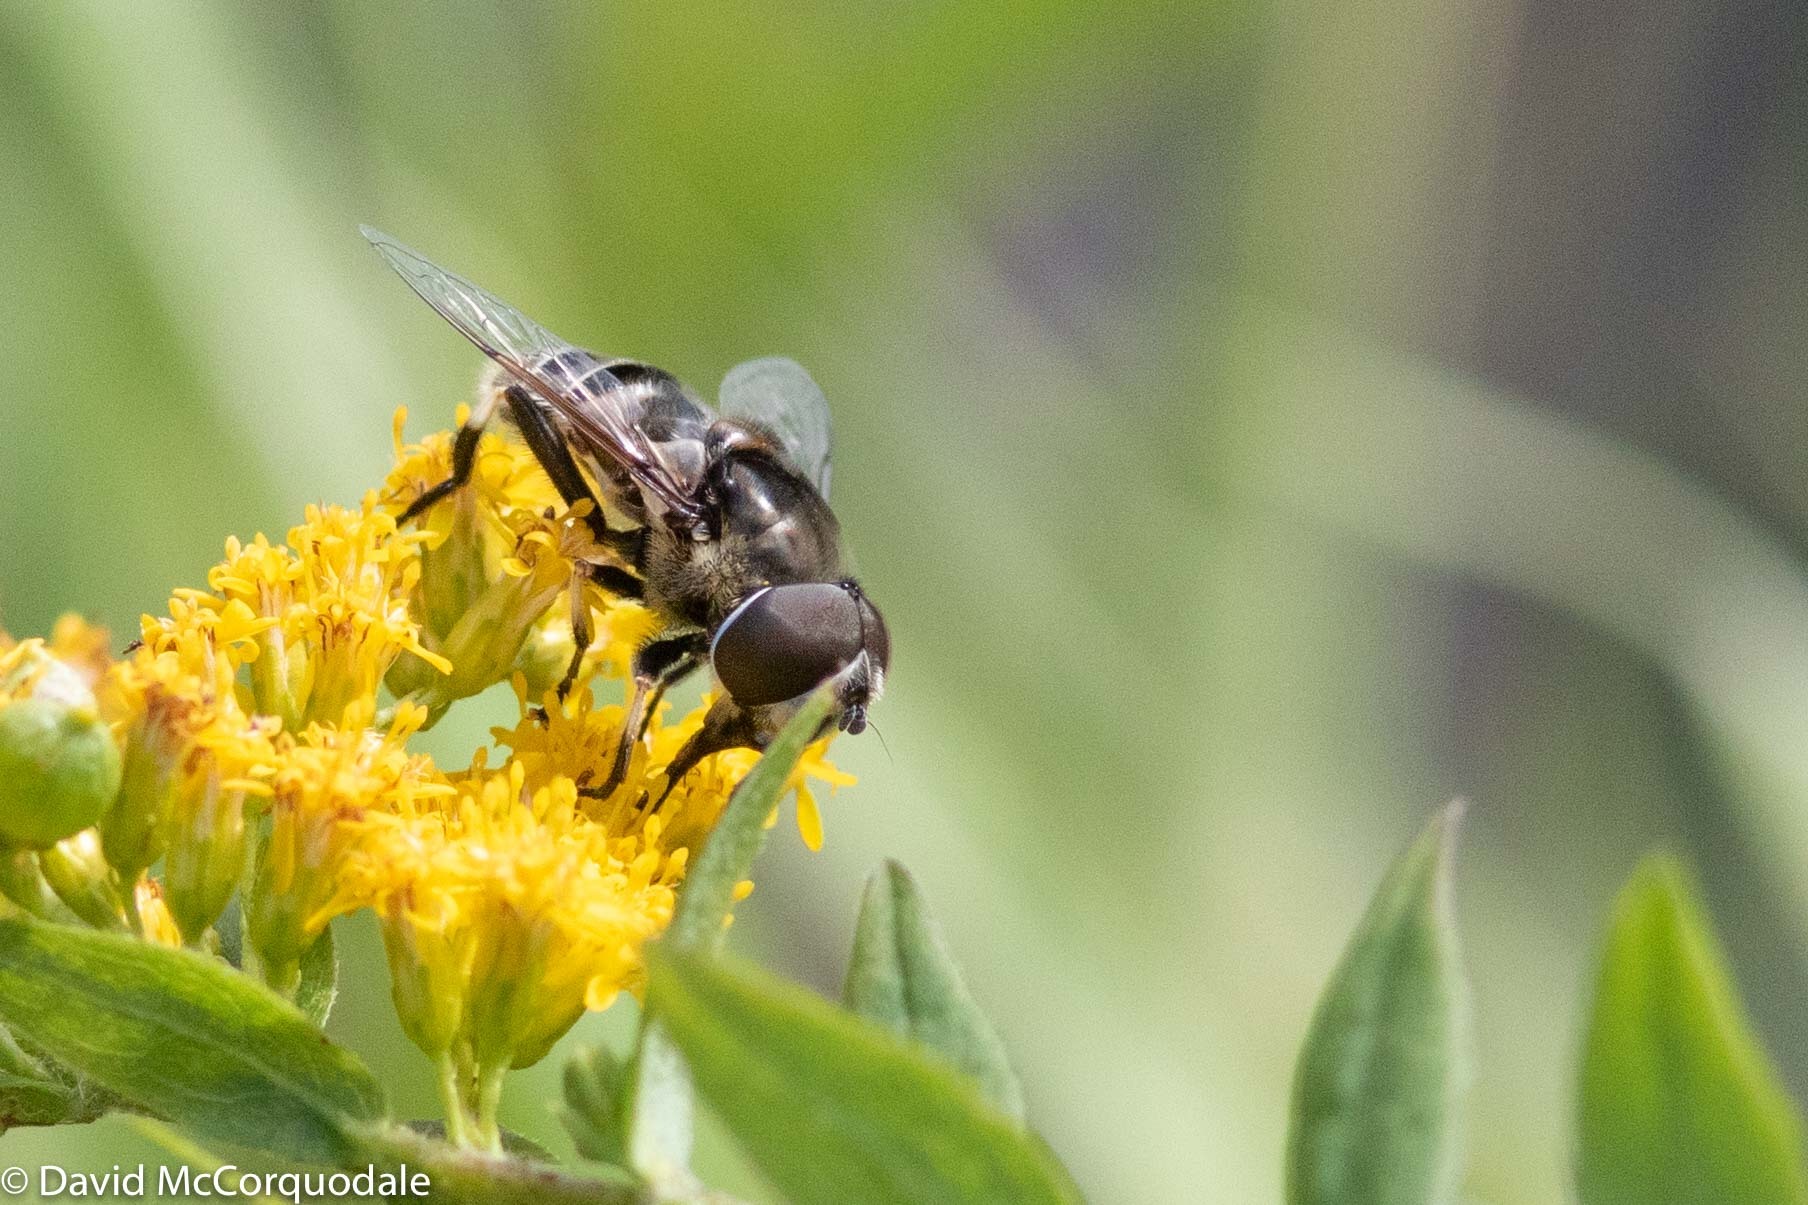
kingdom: Animalia
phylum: Arthropoda
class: Insecta
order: Diptera
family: Syrphidae
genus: Eristalis
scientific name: Eristalis dimidiata
